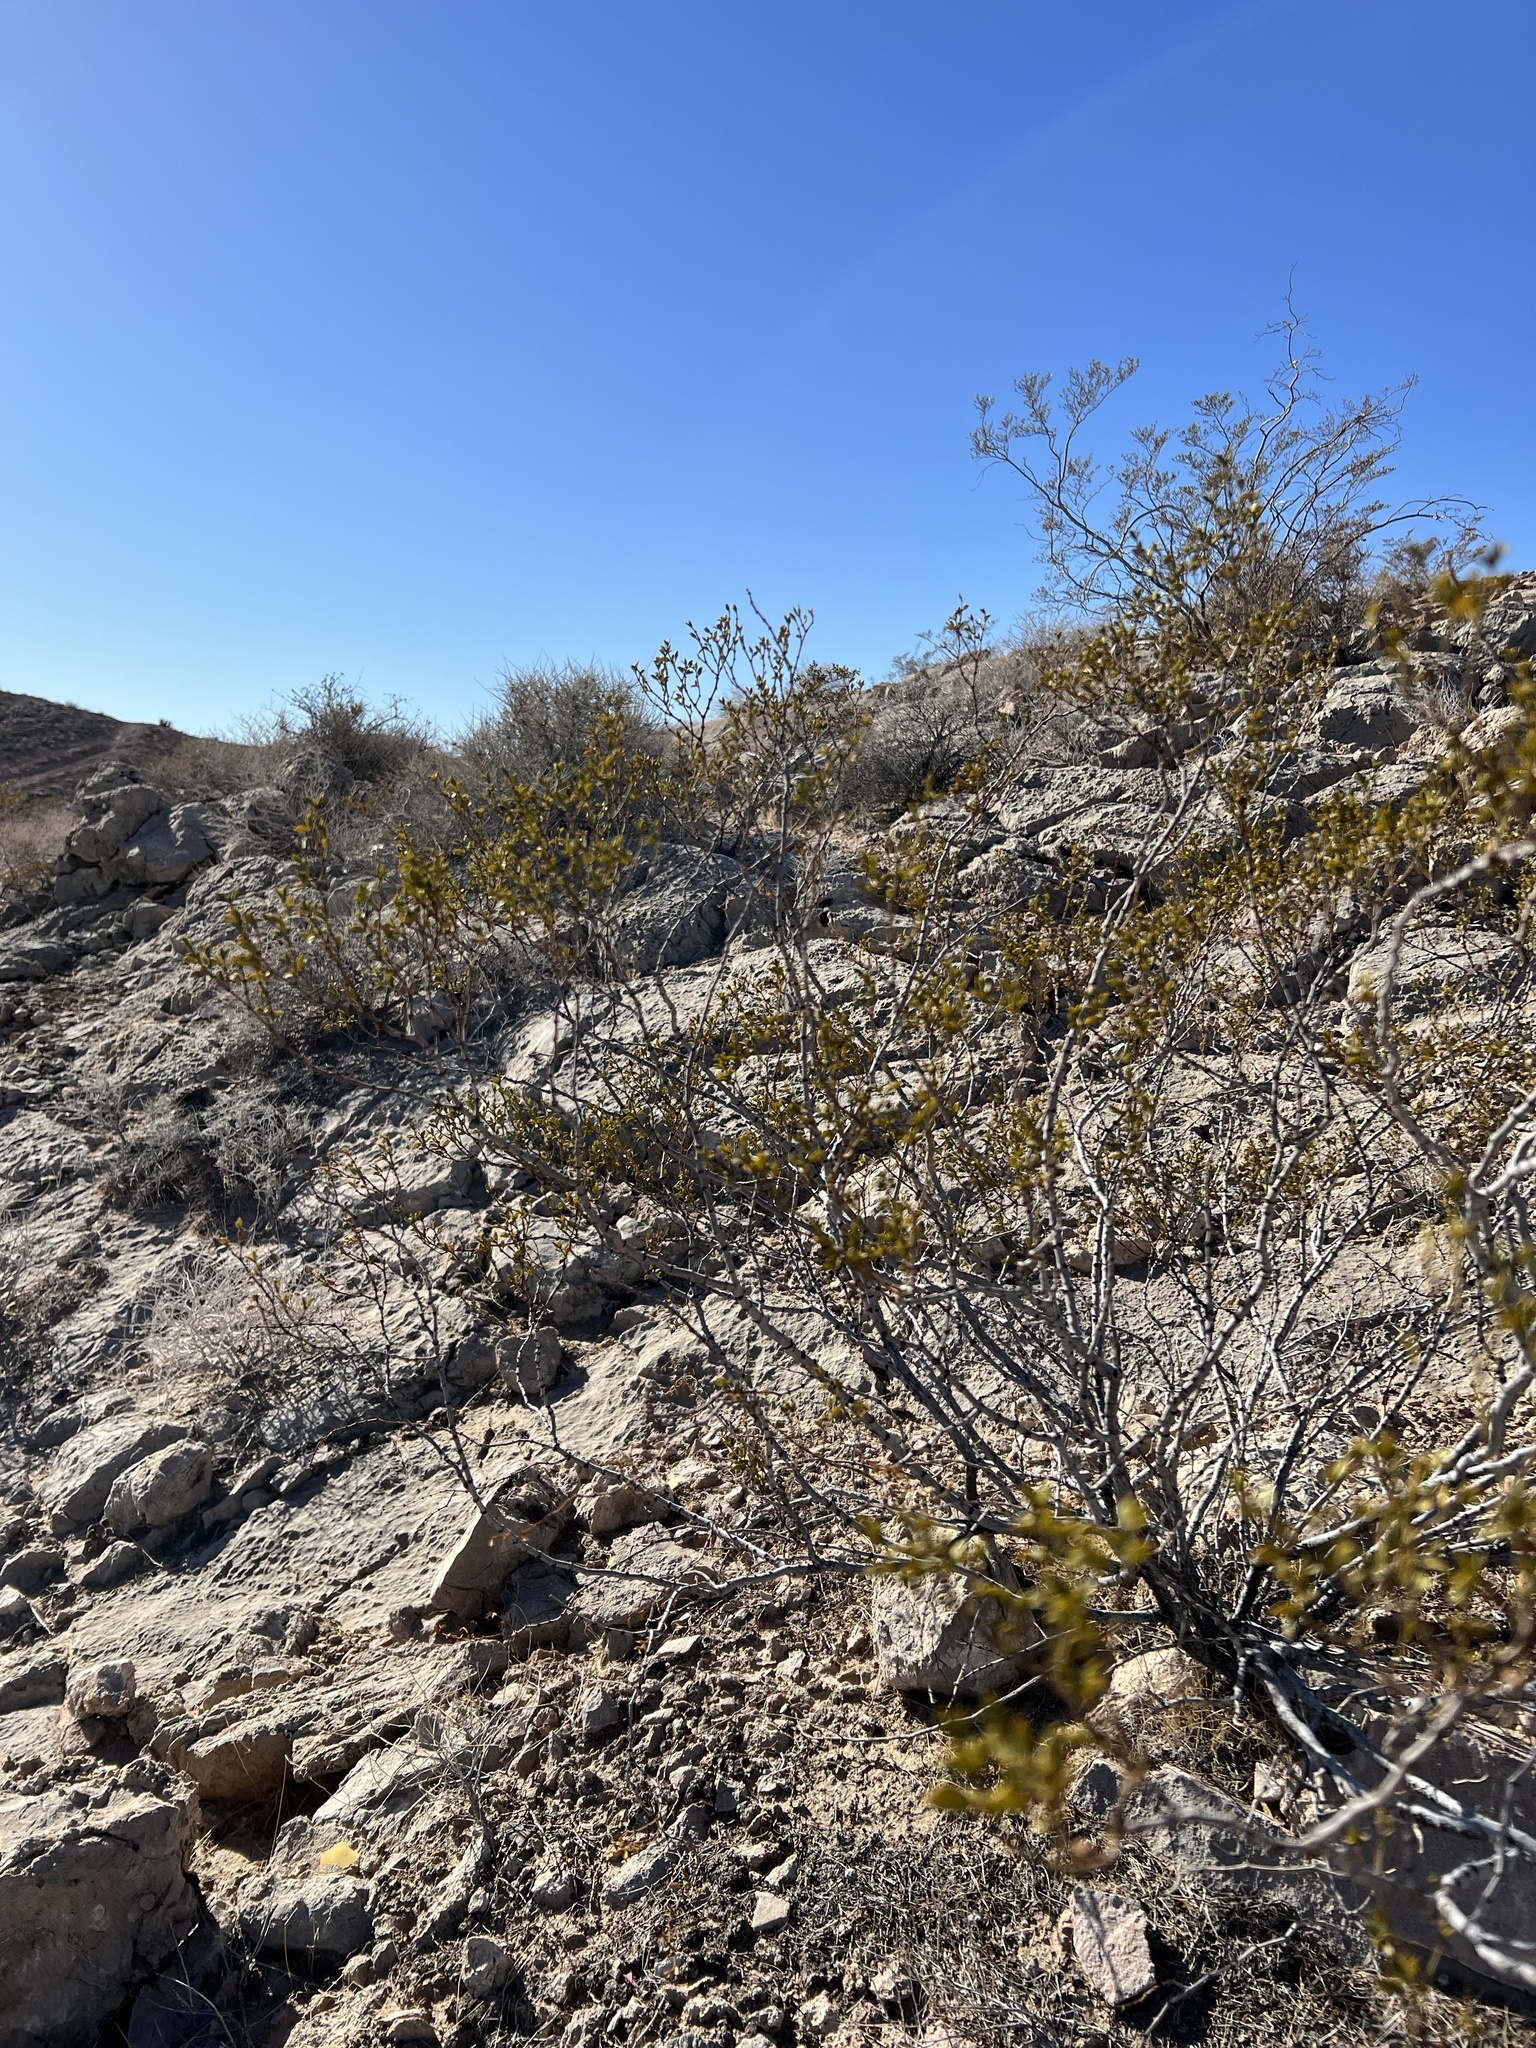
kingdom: Plantae
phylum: Tracheophyta
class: Magnoliopsida
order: Zygophyllales
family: Zygophyllaceae
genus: Larrea
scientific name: Larrea tridentata
